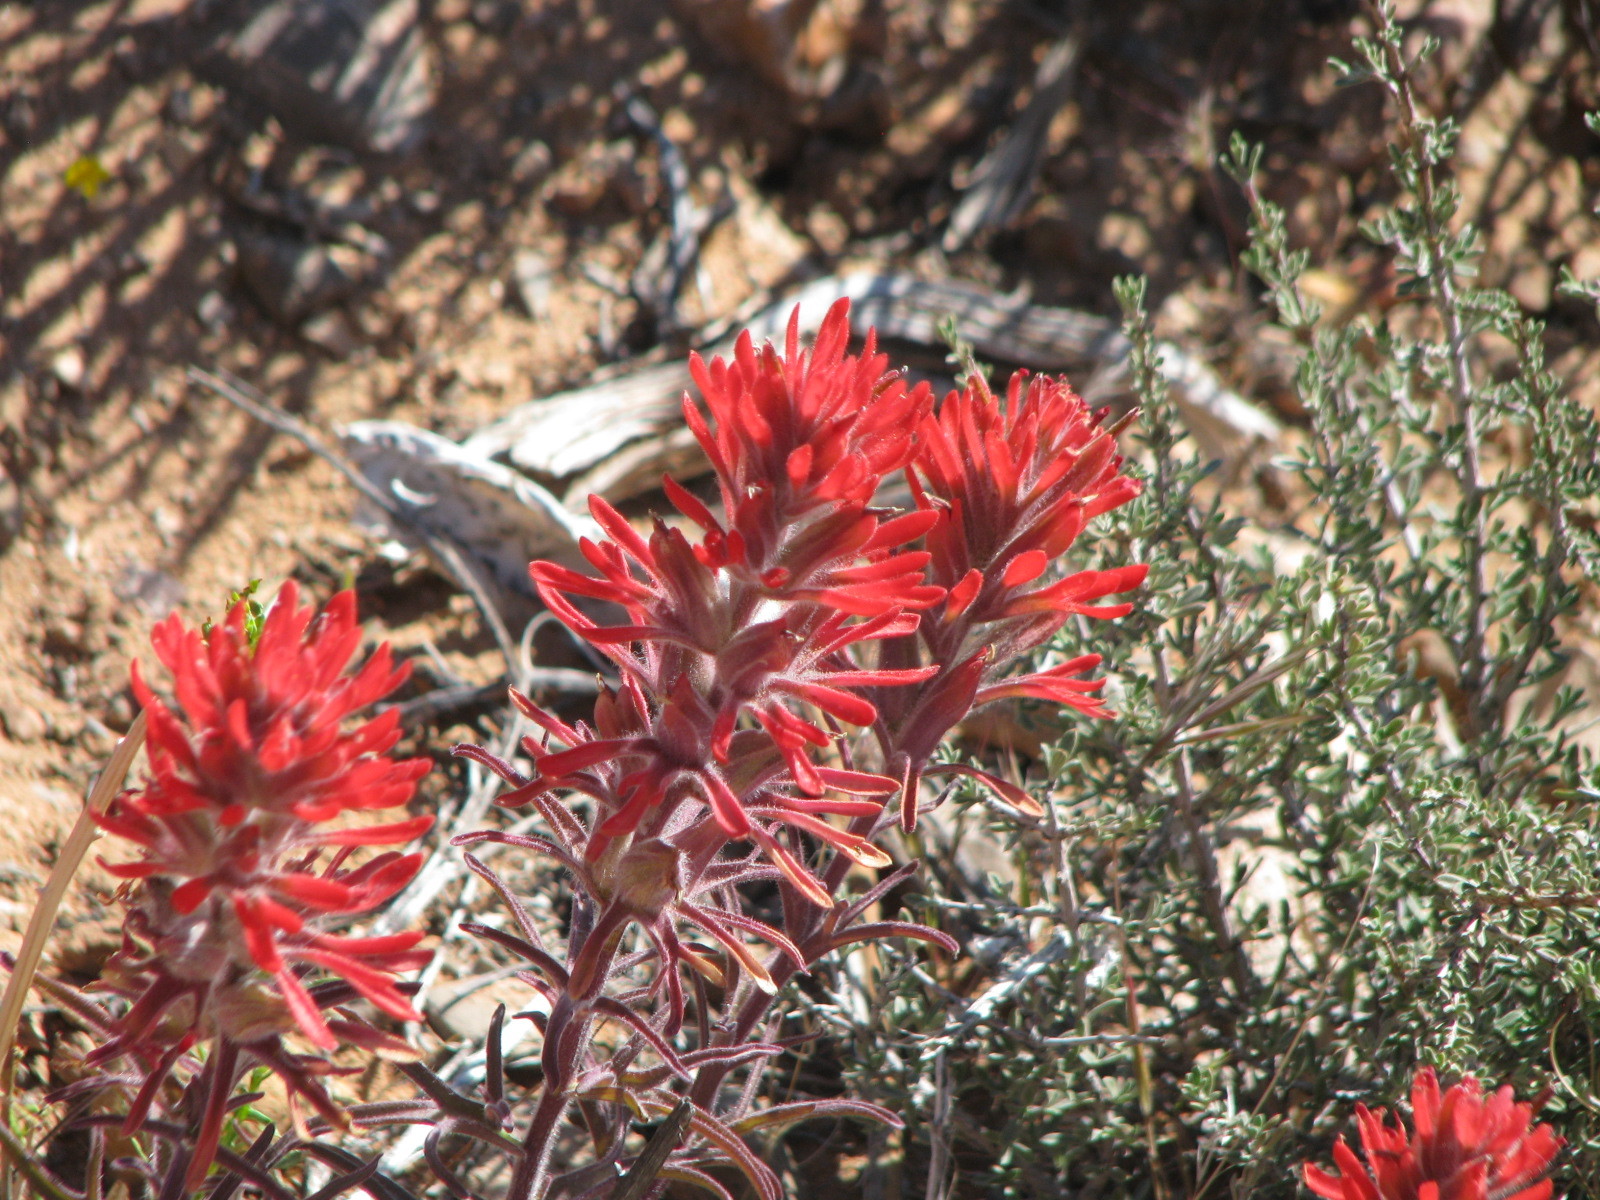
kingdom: Plantae
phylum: Tracheophyta
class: Magnoliopsida
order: Lamiales
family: Orobanchaceae
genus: Castilleja
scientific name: Castilleja chromosa
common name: Desert paintbrush
